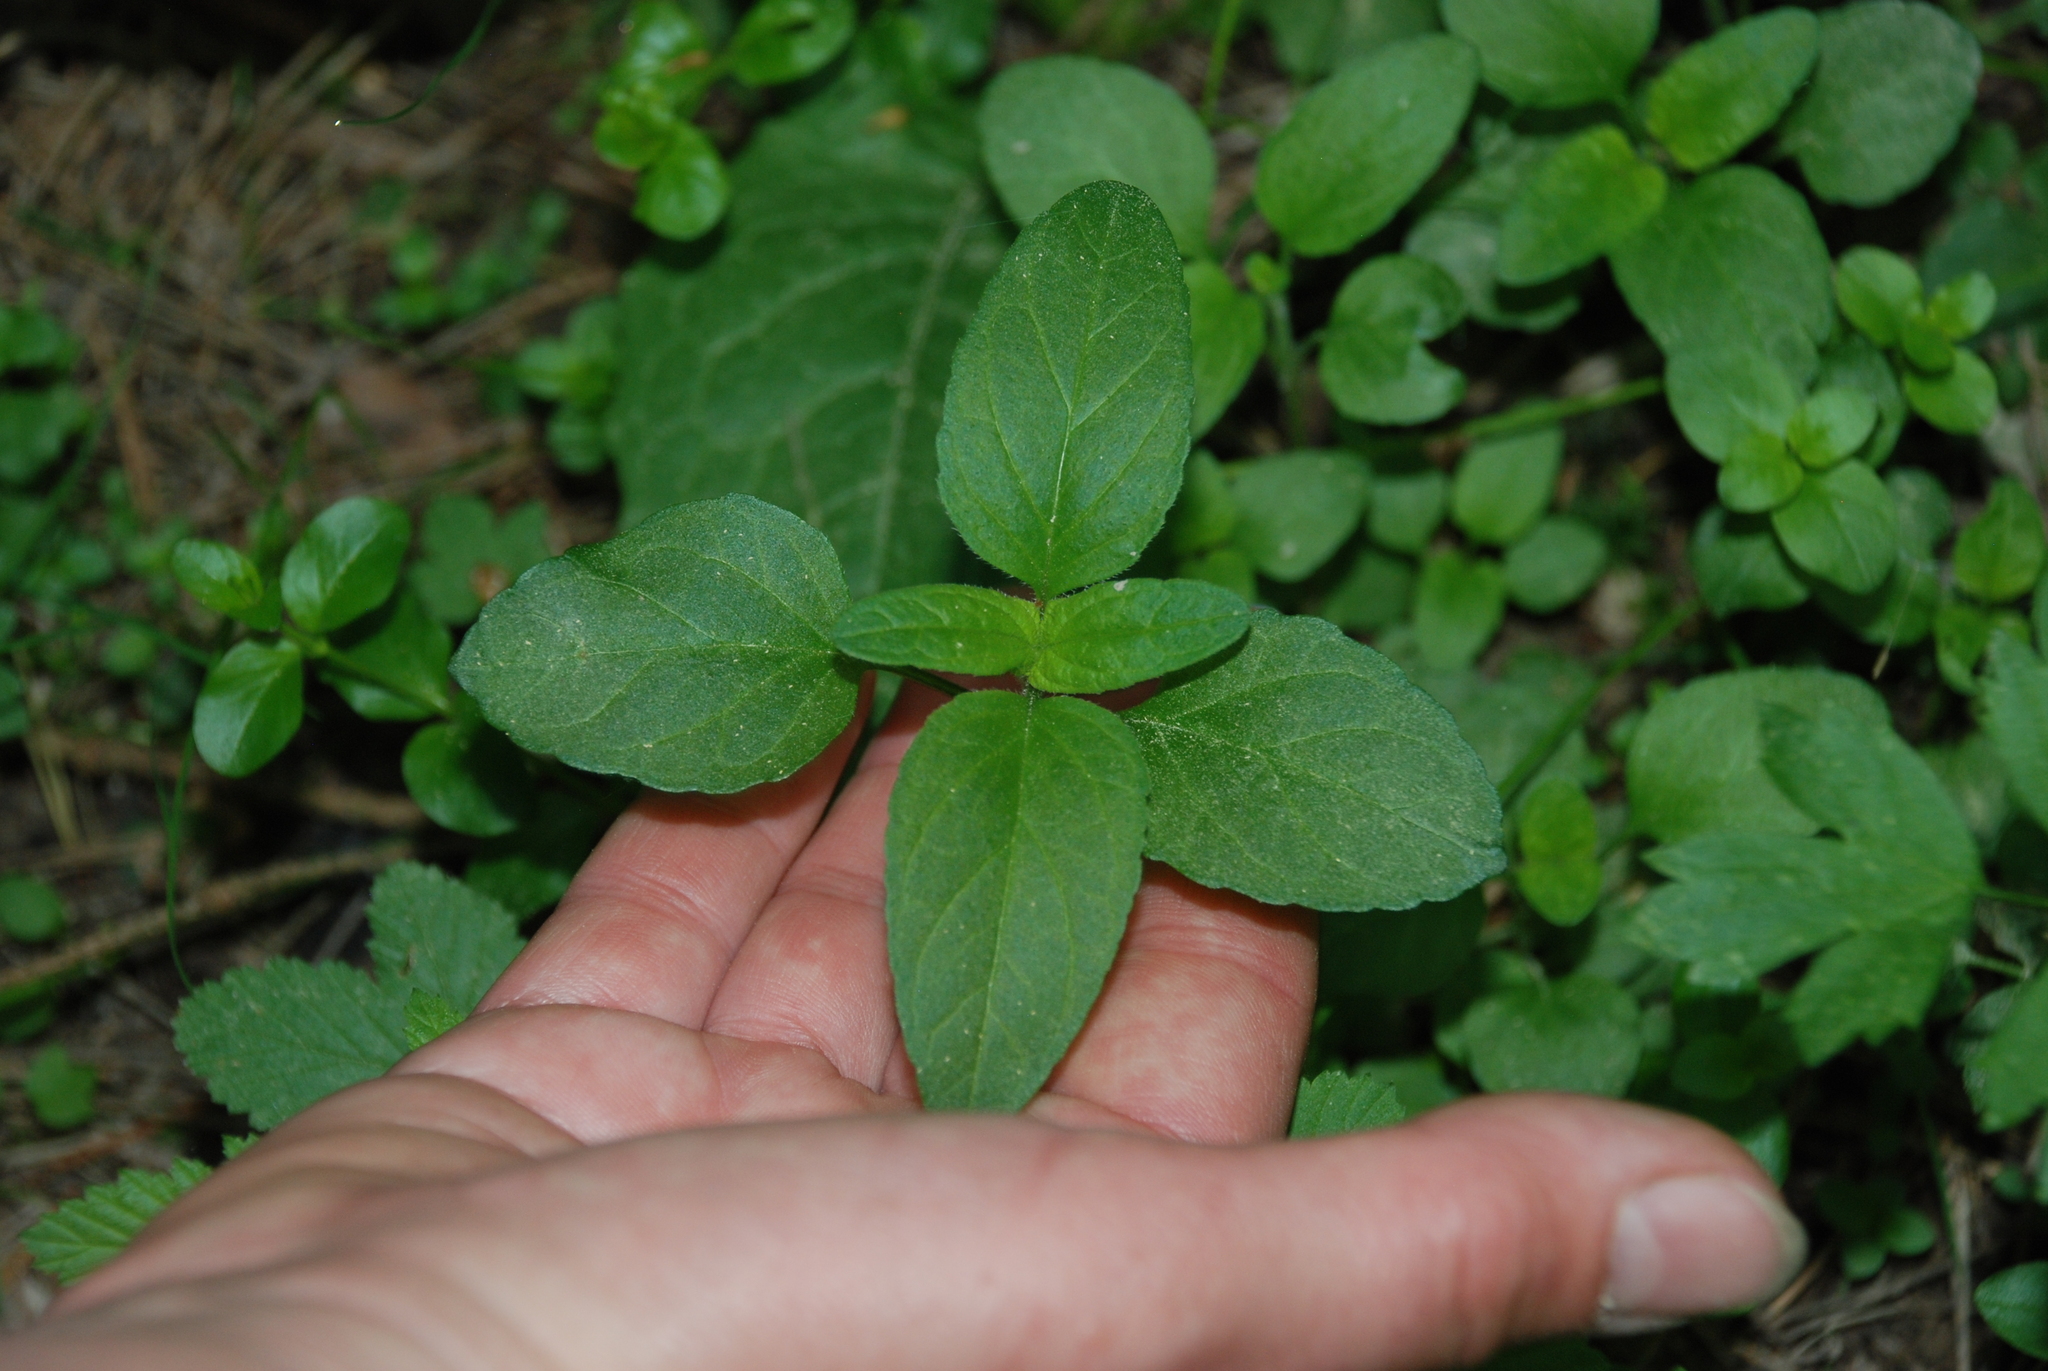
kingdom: Plantae
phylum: Tracheophyta
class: Magnoliopsida
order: Lamiales
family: Lamiaceae
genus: Prunella
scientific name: Prunella vulgaris
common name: Heal-all
